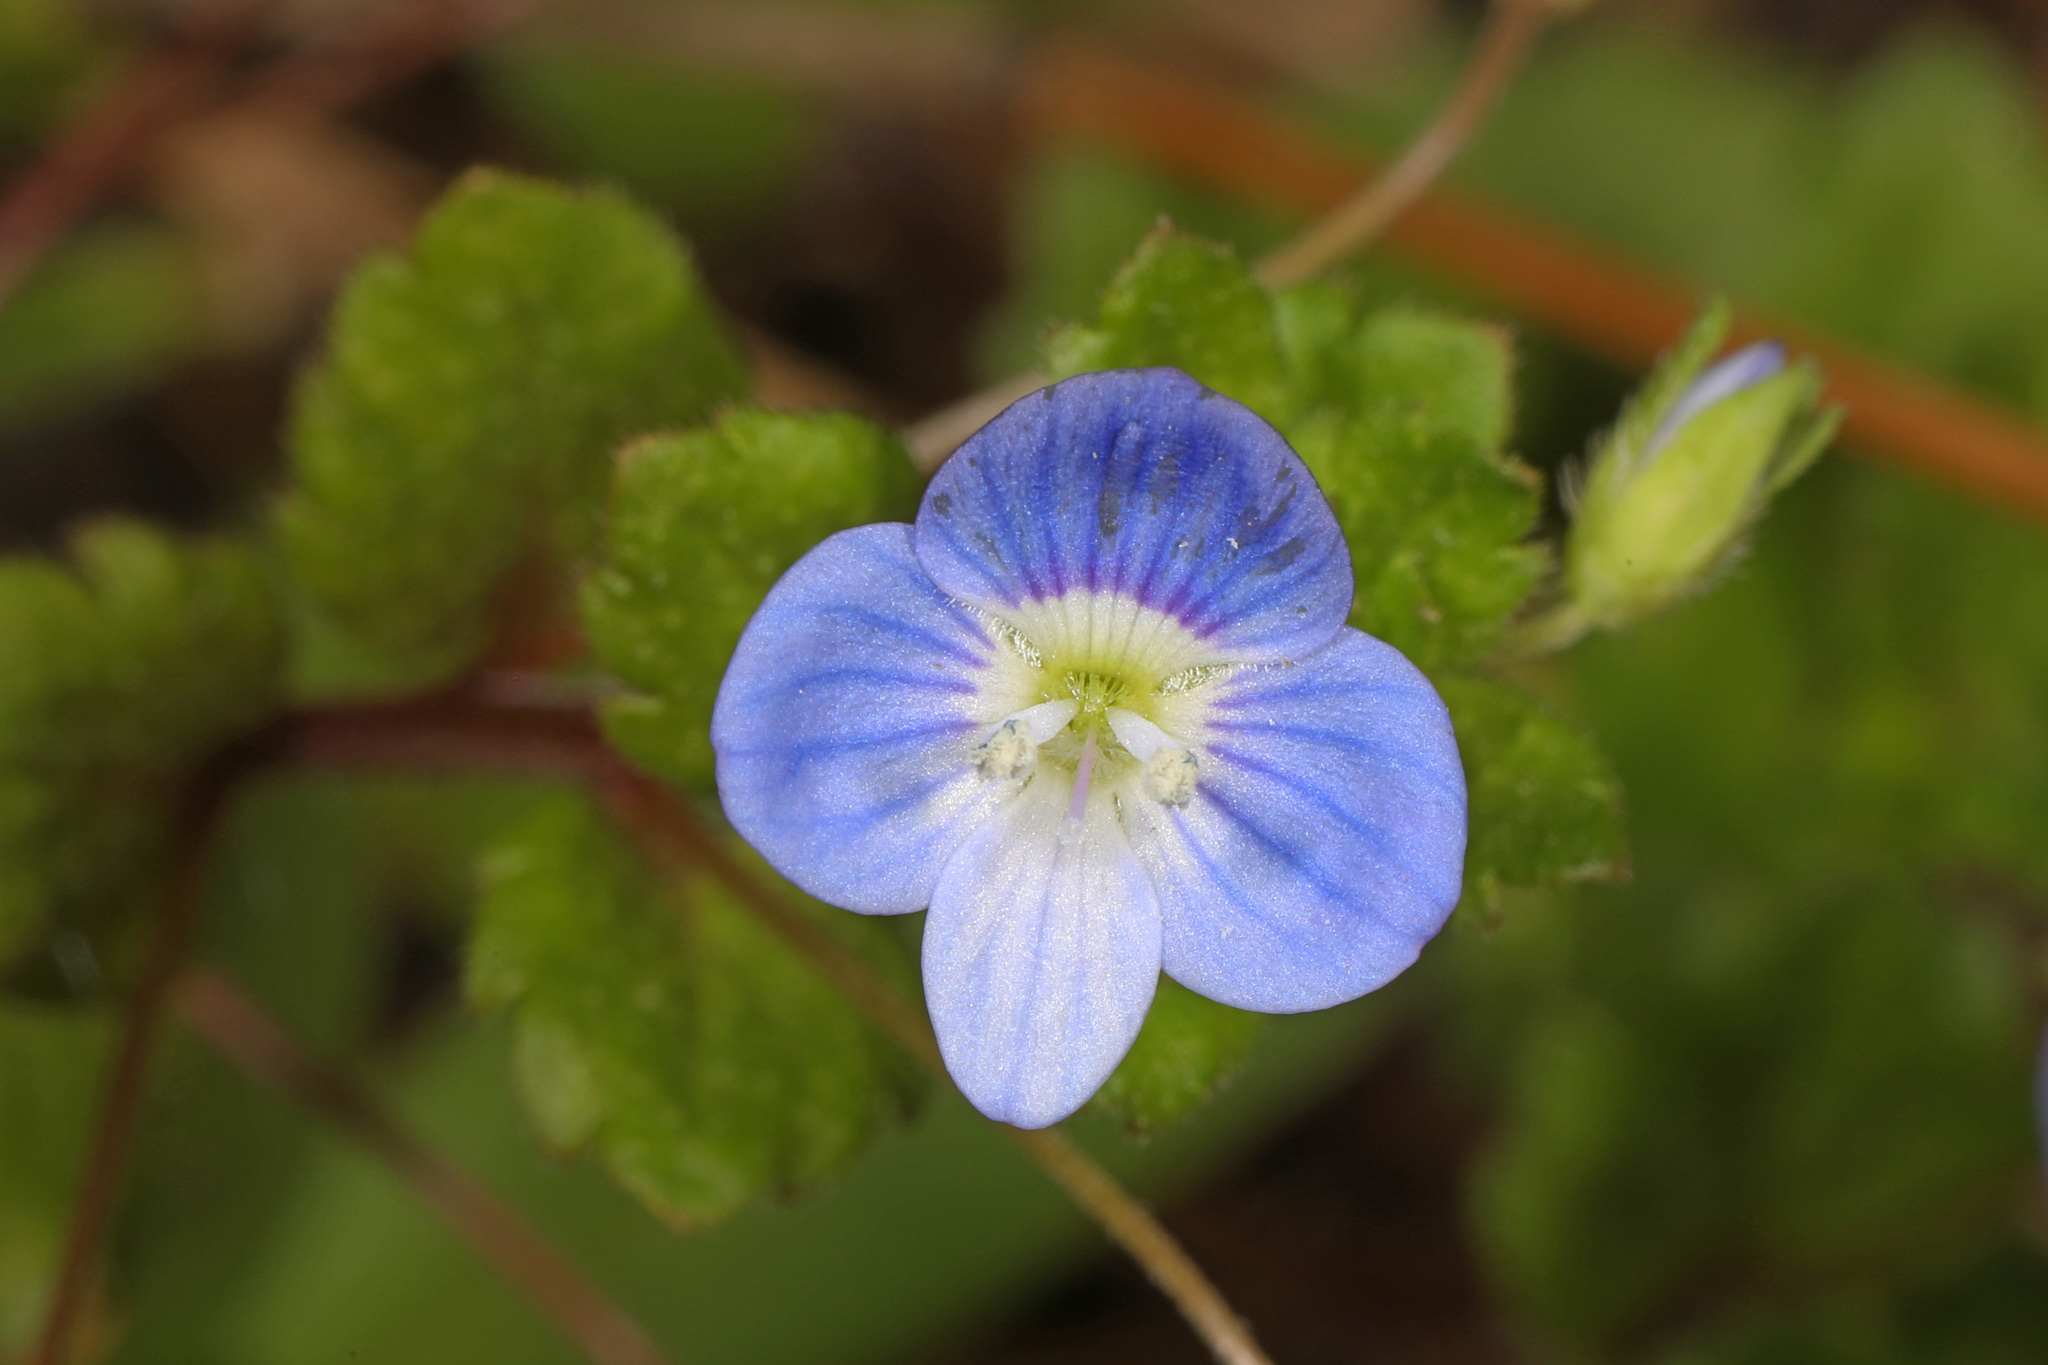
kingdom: Plantae
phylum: Tracheophyta
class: Magnoliopsida
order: Lamiales
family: Plantaginaceae
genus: Veronica
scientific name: Veronica persica
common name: Common field-speedwell
